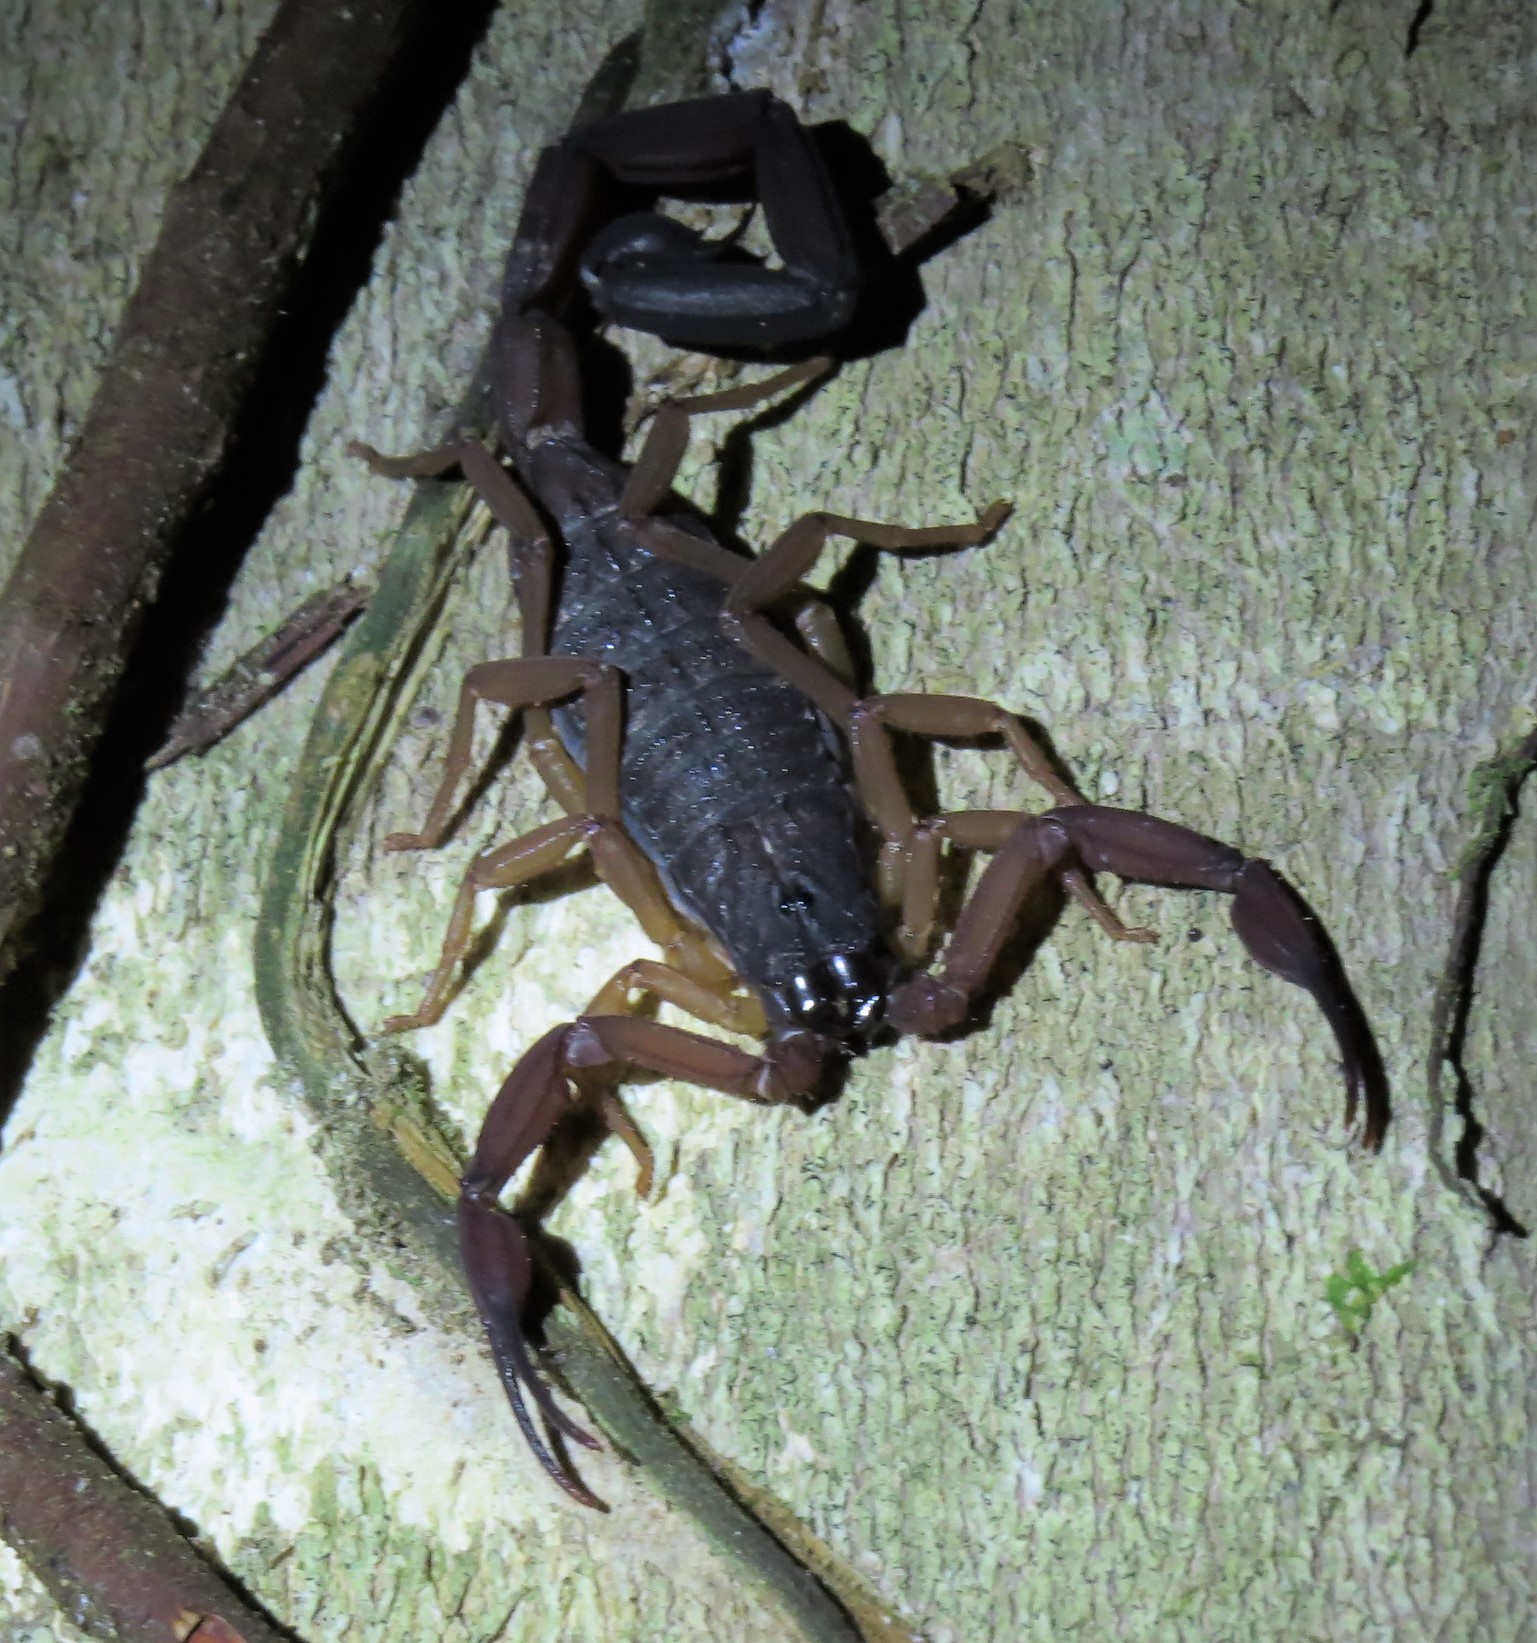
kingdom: Animalia
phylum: Arthropoda
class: Arachnida
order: Scorpiones
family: Buthidae
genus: Centruroides
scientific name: Centruroides gracilis
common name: Scorpions
